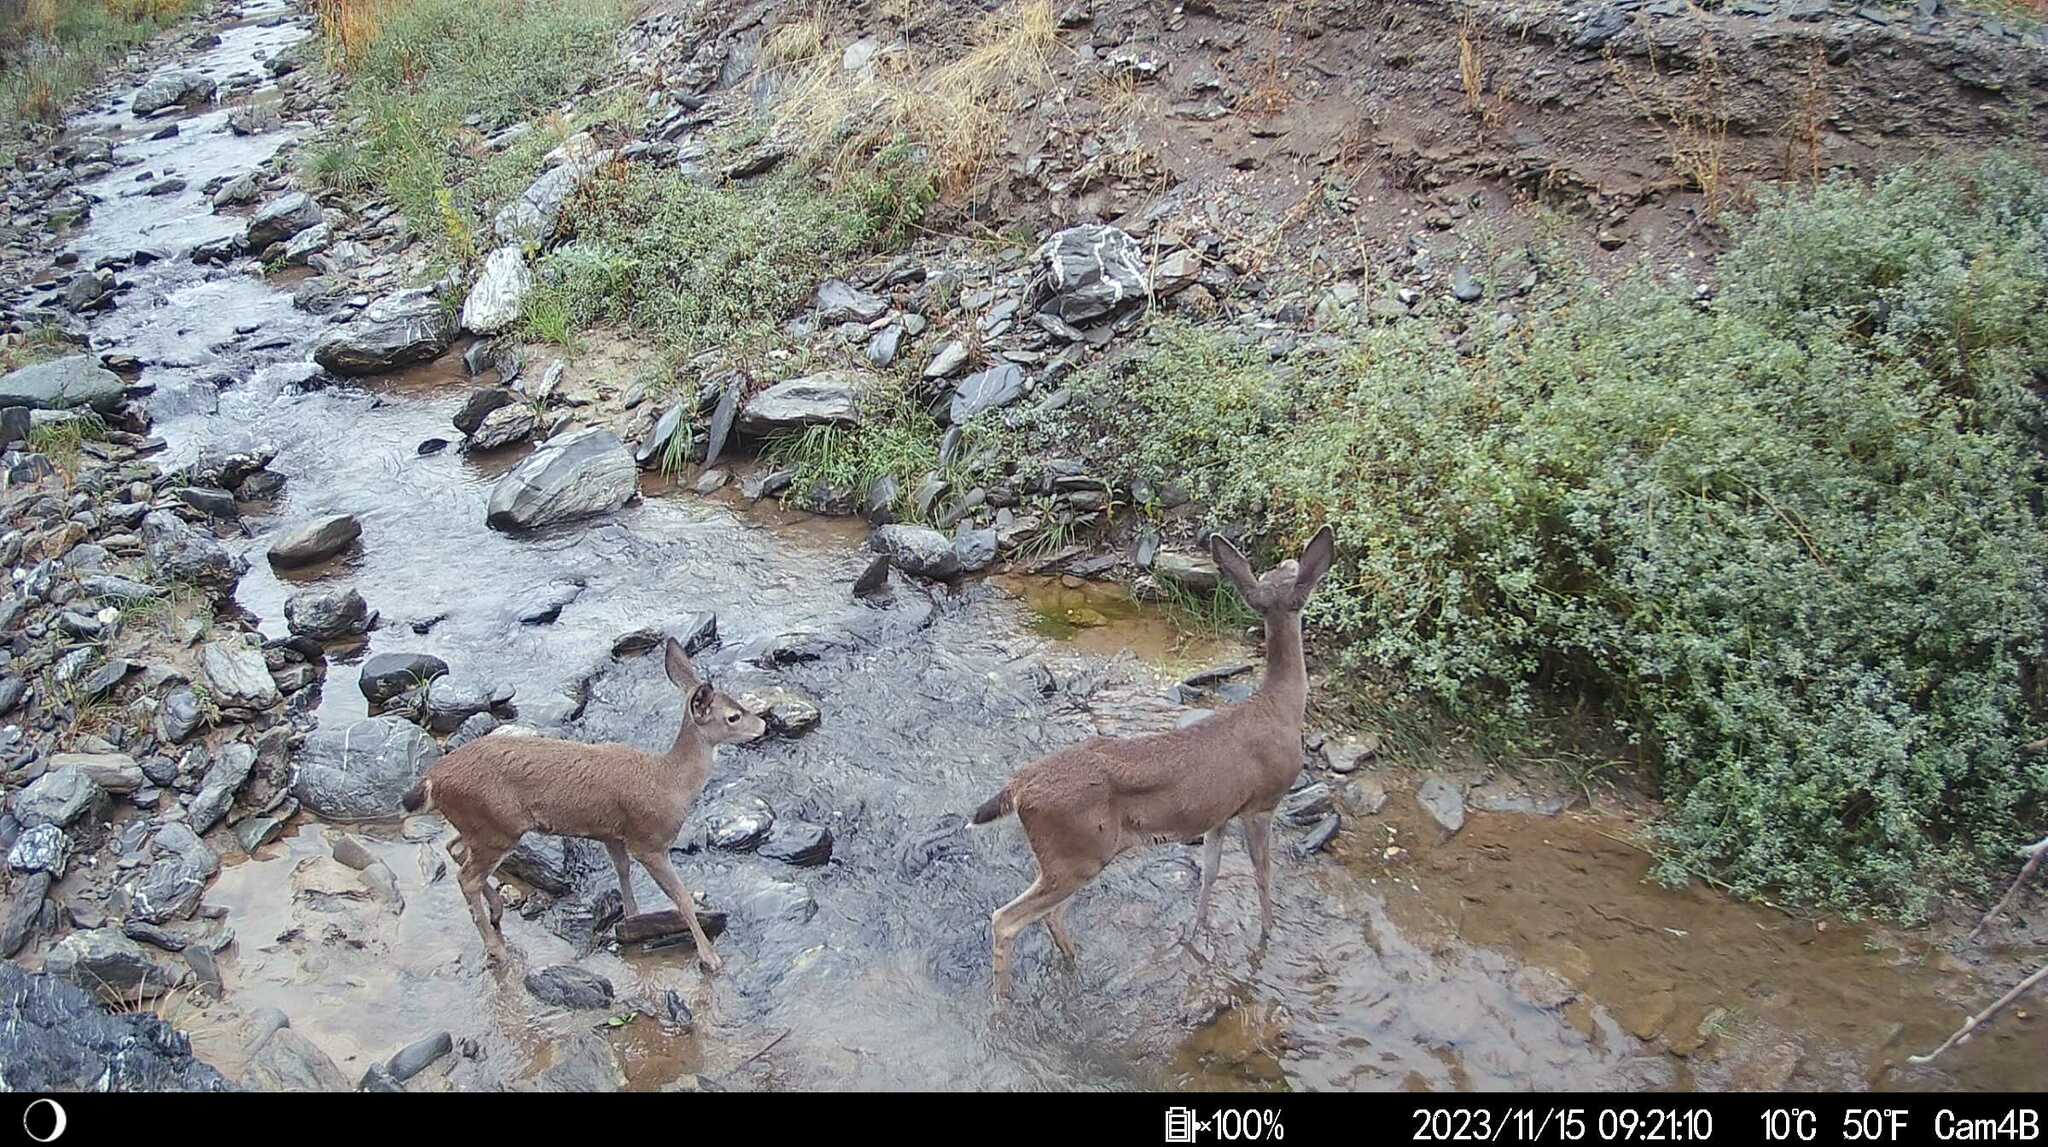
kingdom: Animalia
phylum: Chordata
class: Mammalia
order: Artiodactyla
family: Cervidae
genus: Odocoileus
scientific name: Odocoileus hemionus
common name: Mule deer
